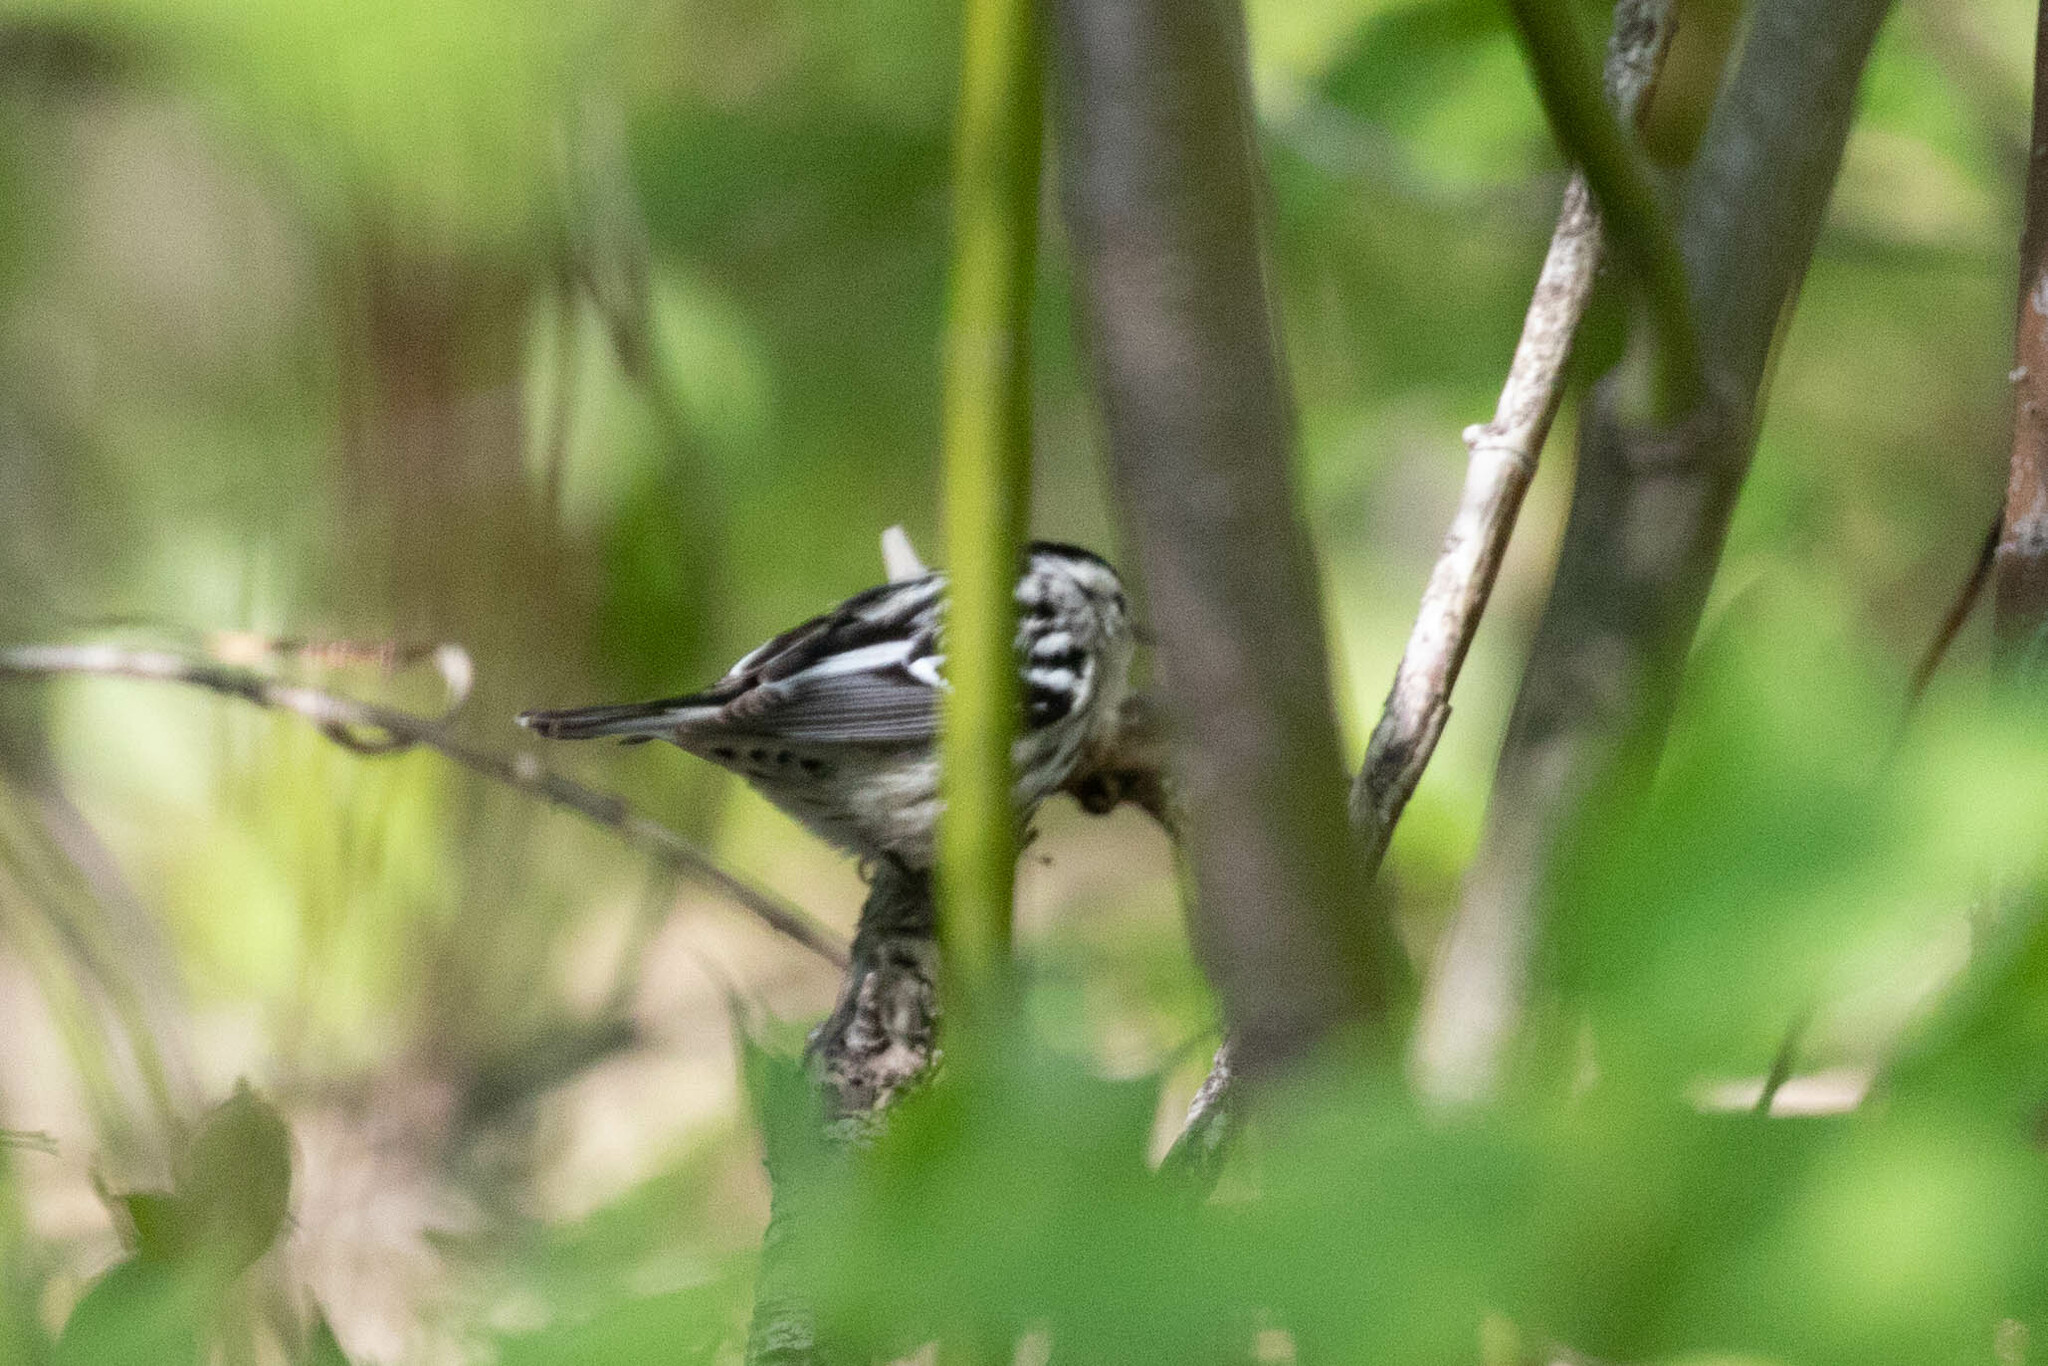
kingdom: Animalia
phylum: Chordata
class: Aves
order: Passeriformes
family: Parulidae
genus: Mniotilta
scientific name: Mniotilta varia
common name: Black-and-white warbler
